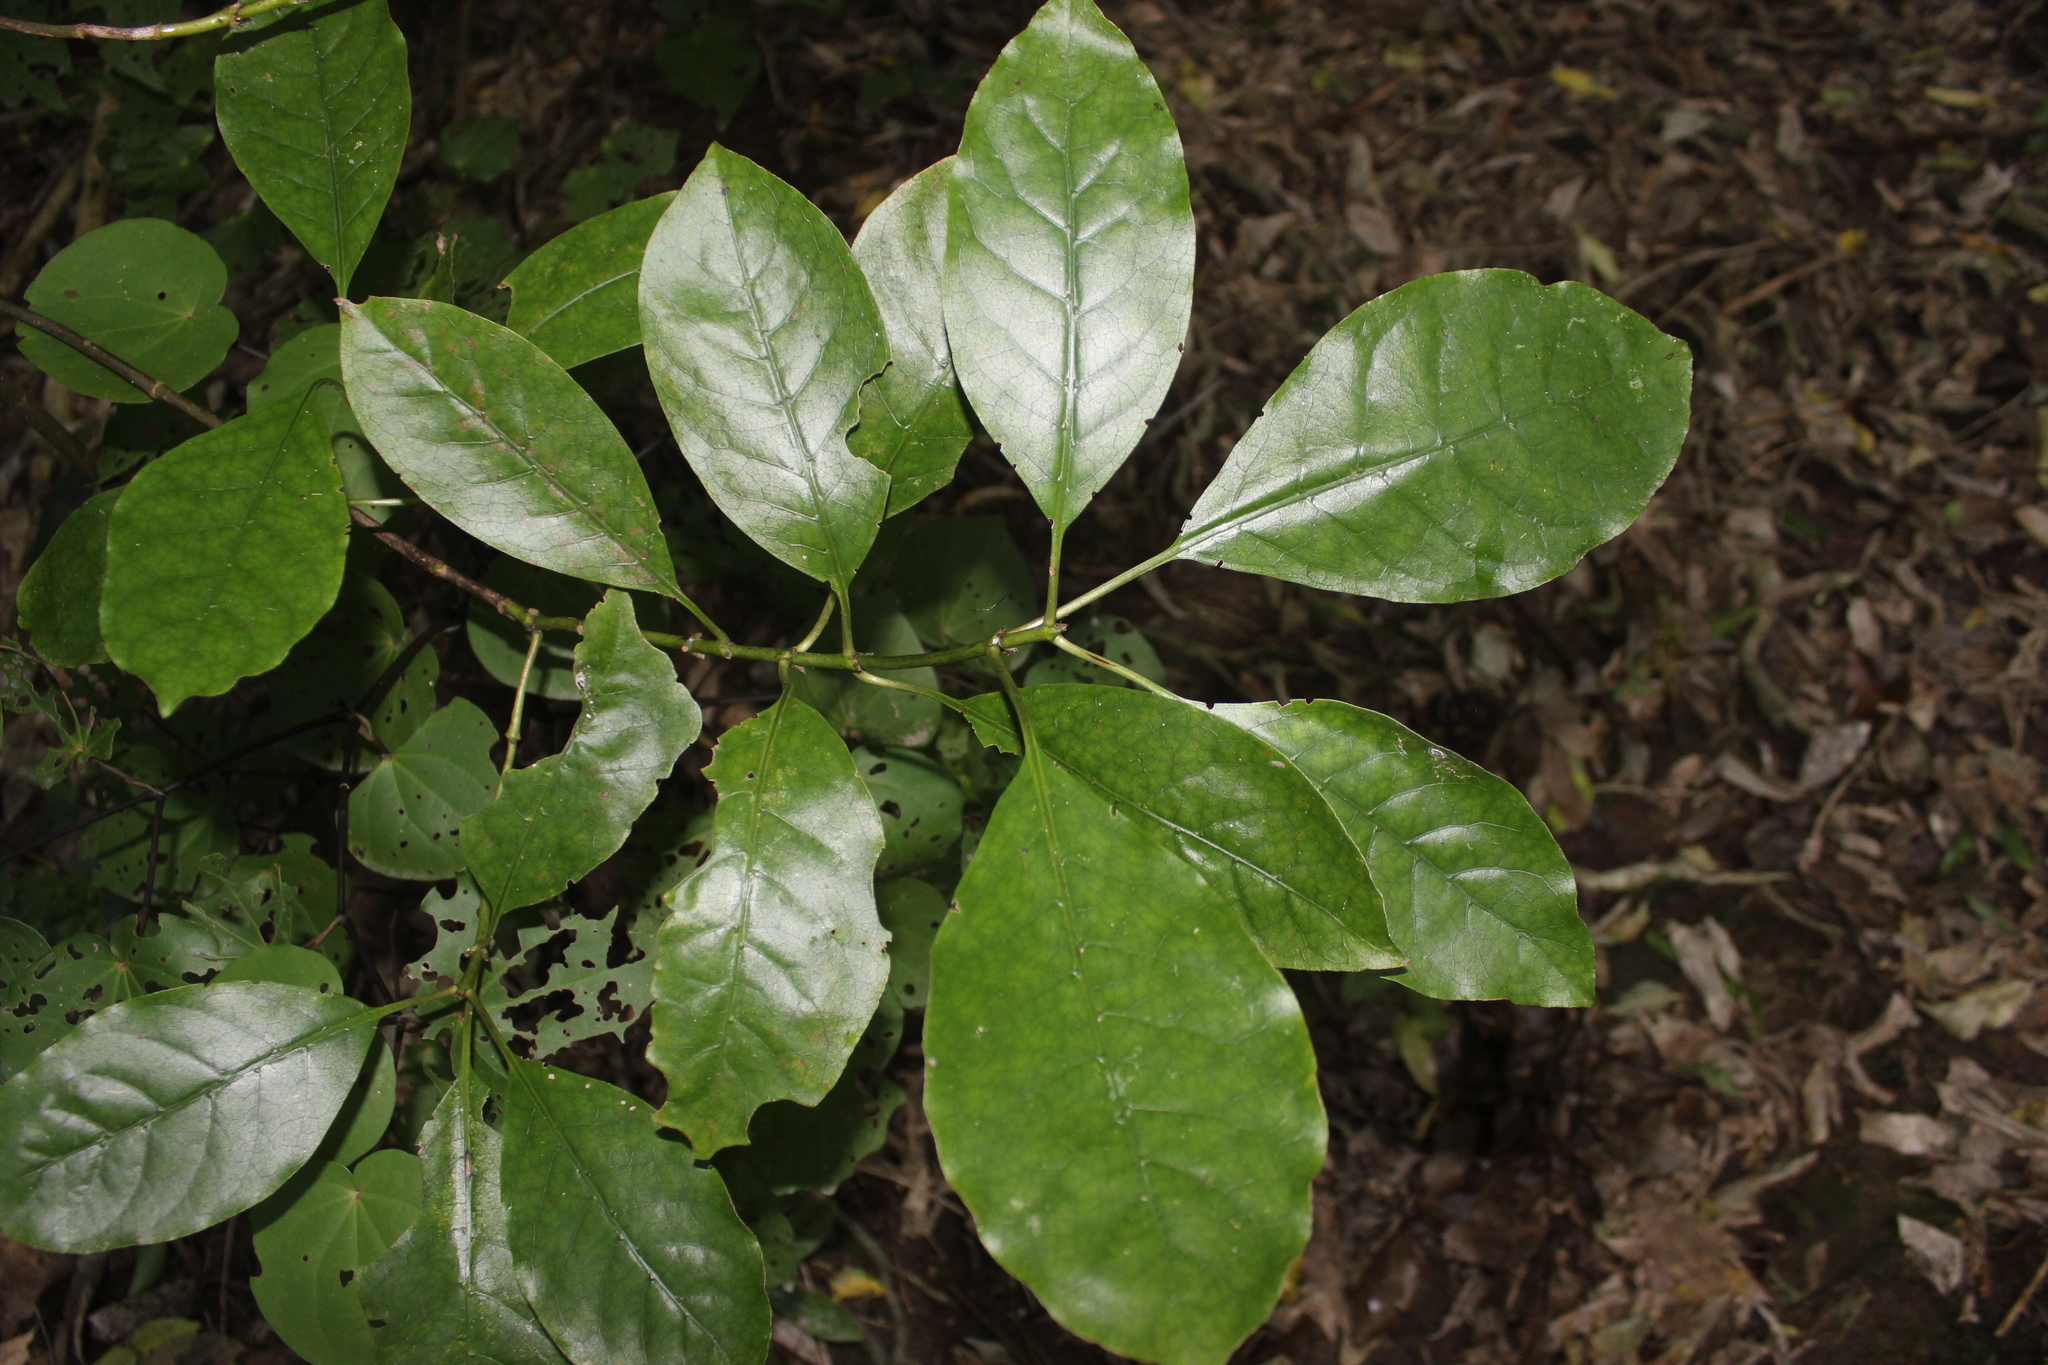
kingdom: Plantae
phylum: Tracheophyta
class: Magnoliopsida
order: Gentianales
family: Rubiaceae
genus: Coprosma
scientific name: Coprosma autumnalis
